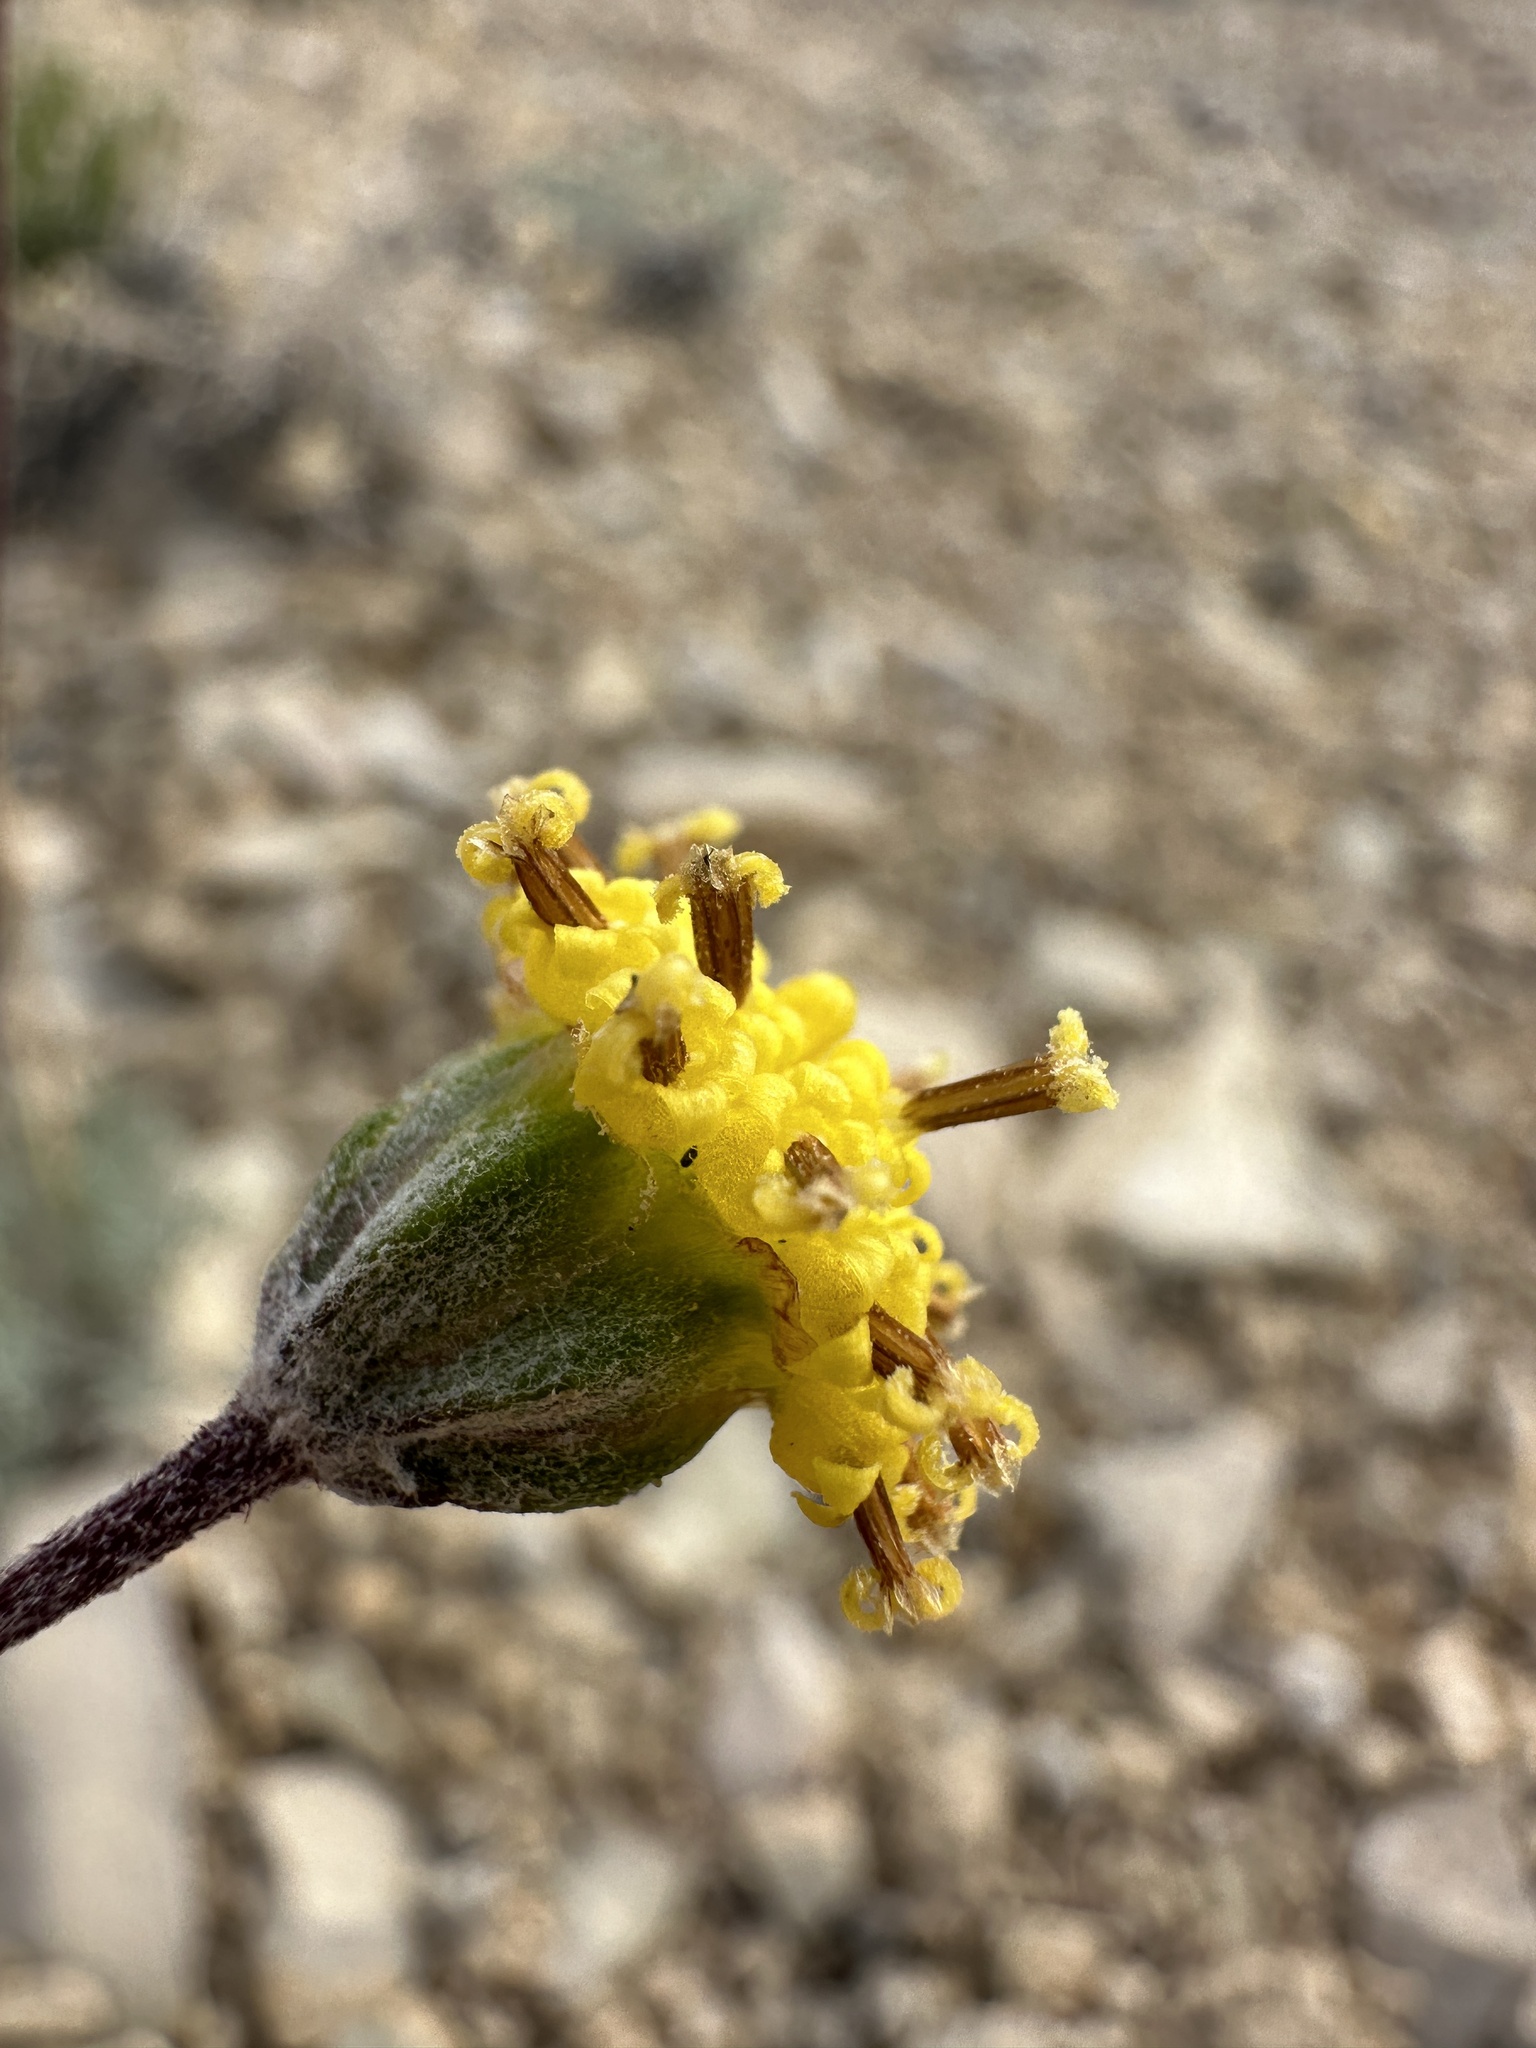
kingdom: Plantae
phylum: Tracheophyta
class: Magnoliopsida
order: Asterales
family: Asteraceae
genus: Hymenopappus
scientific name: Hymenopappus filifolius
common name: Columbia cutleaf
